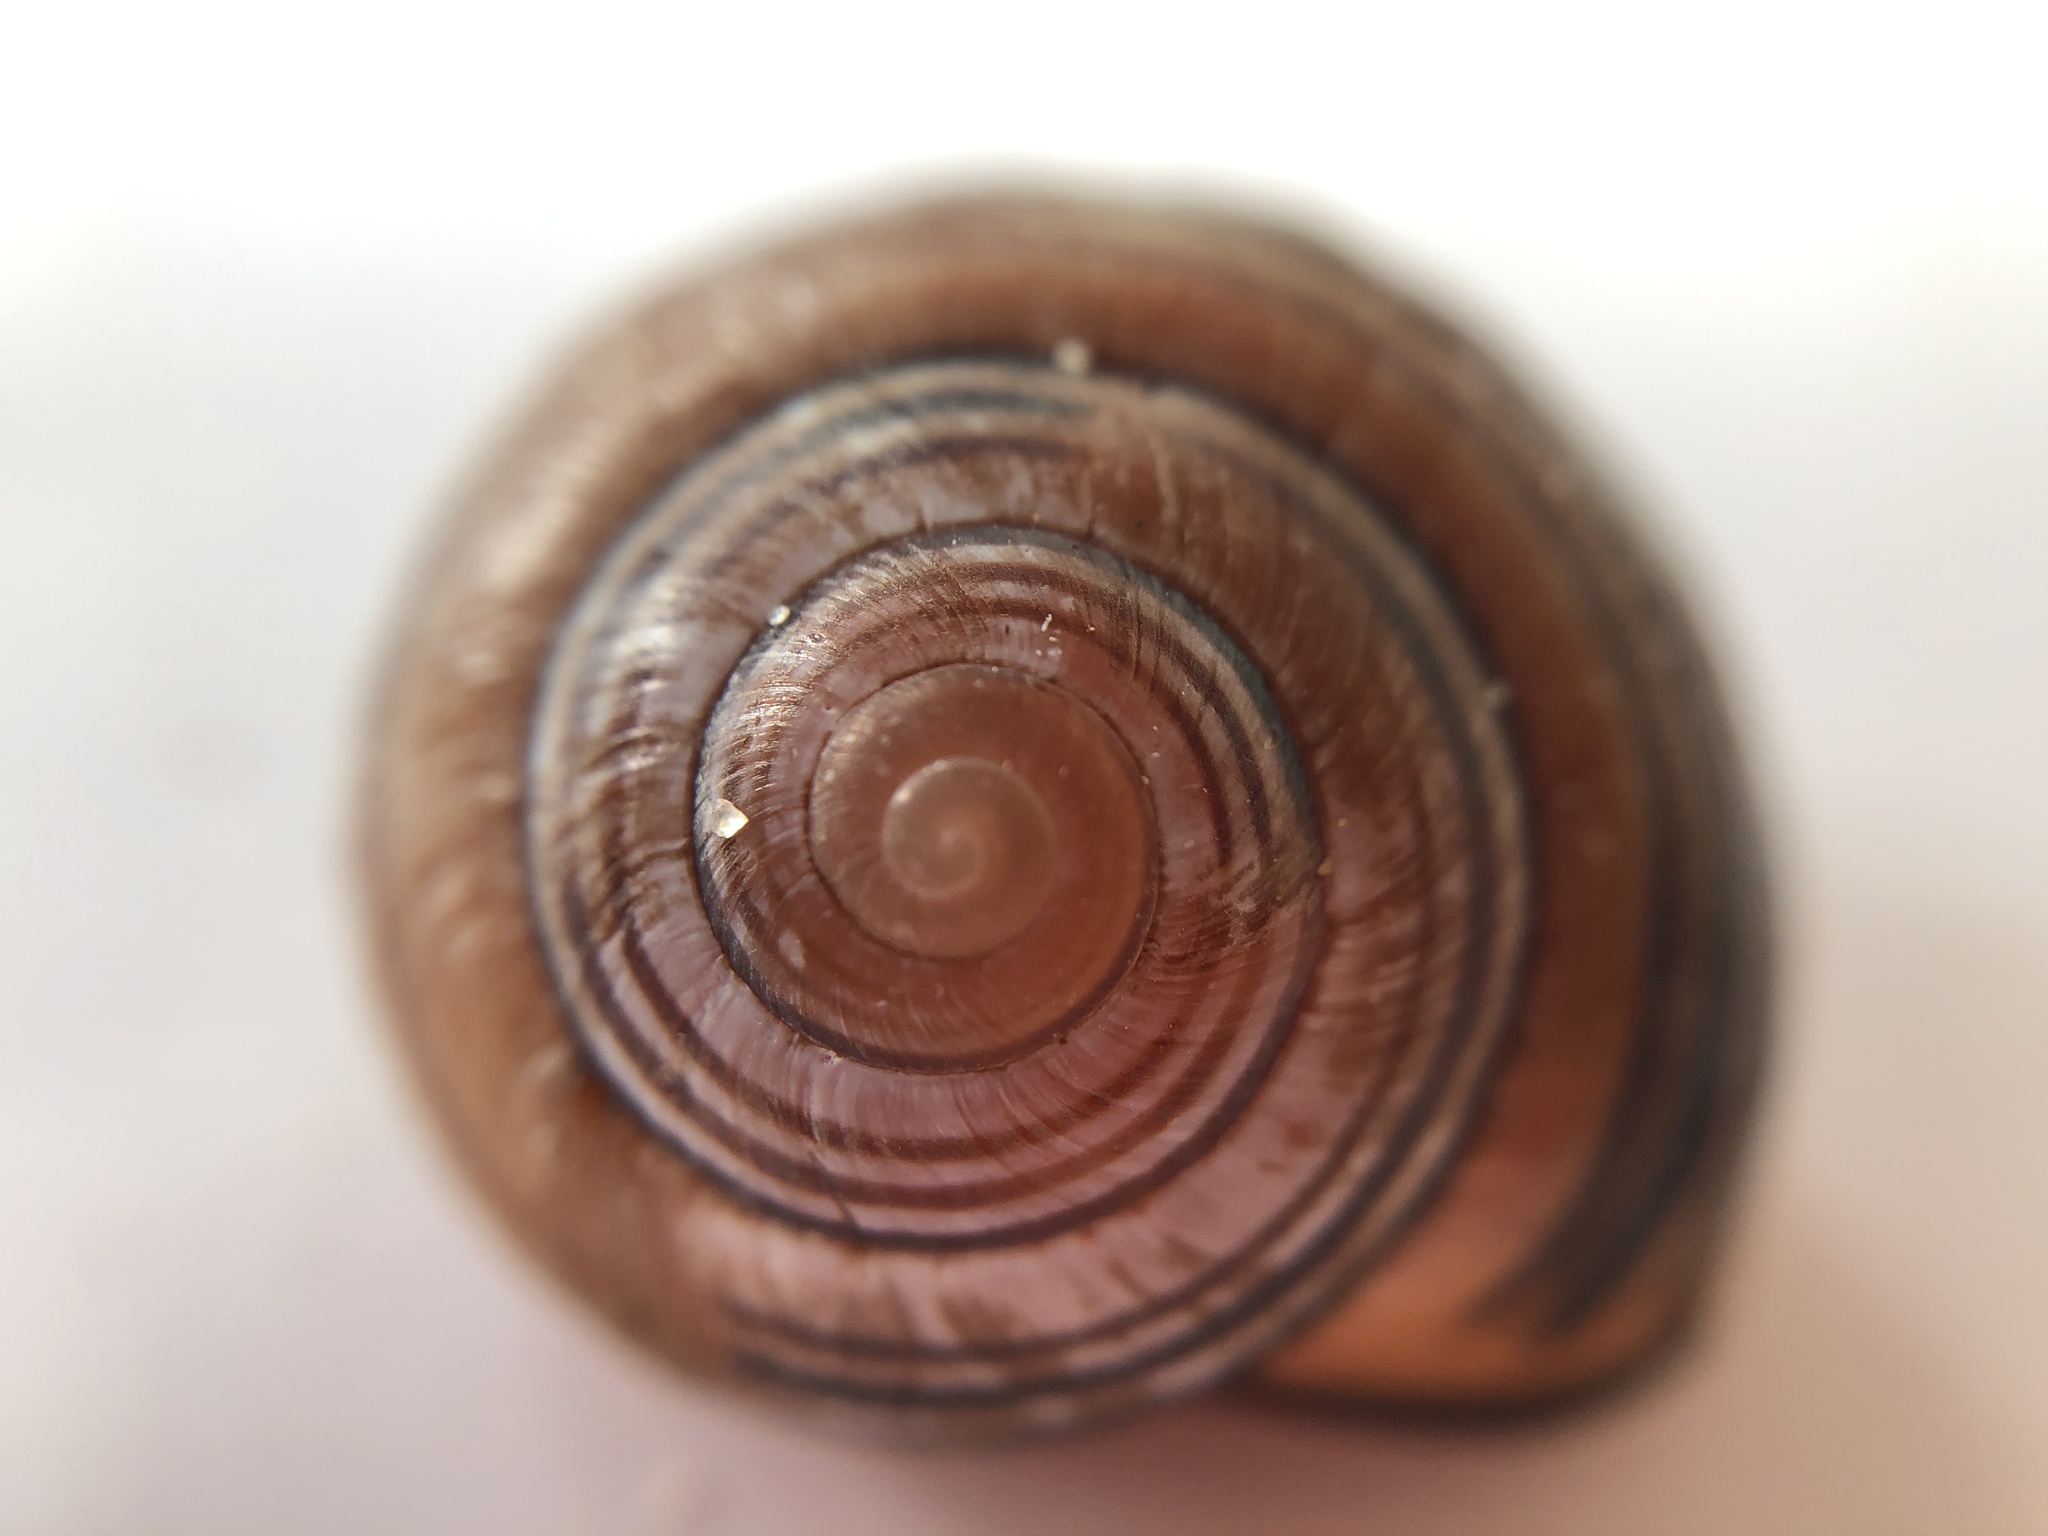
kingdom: Animalia
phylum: Mollusca
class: Gastropoda
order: Stylommatophora
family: Helicidae
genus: Cepaea
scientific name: Cepaea nemoralis
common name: Grovesnail
